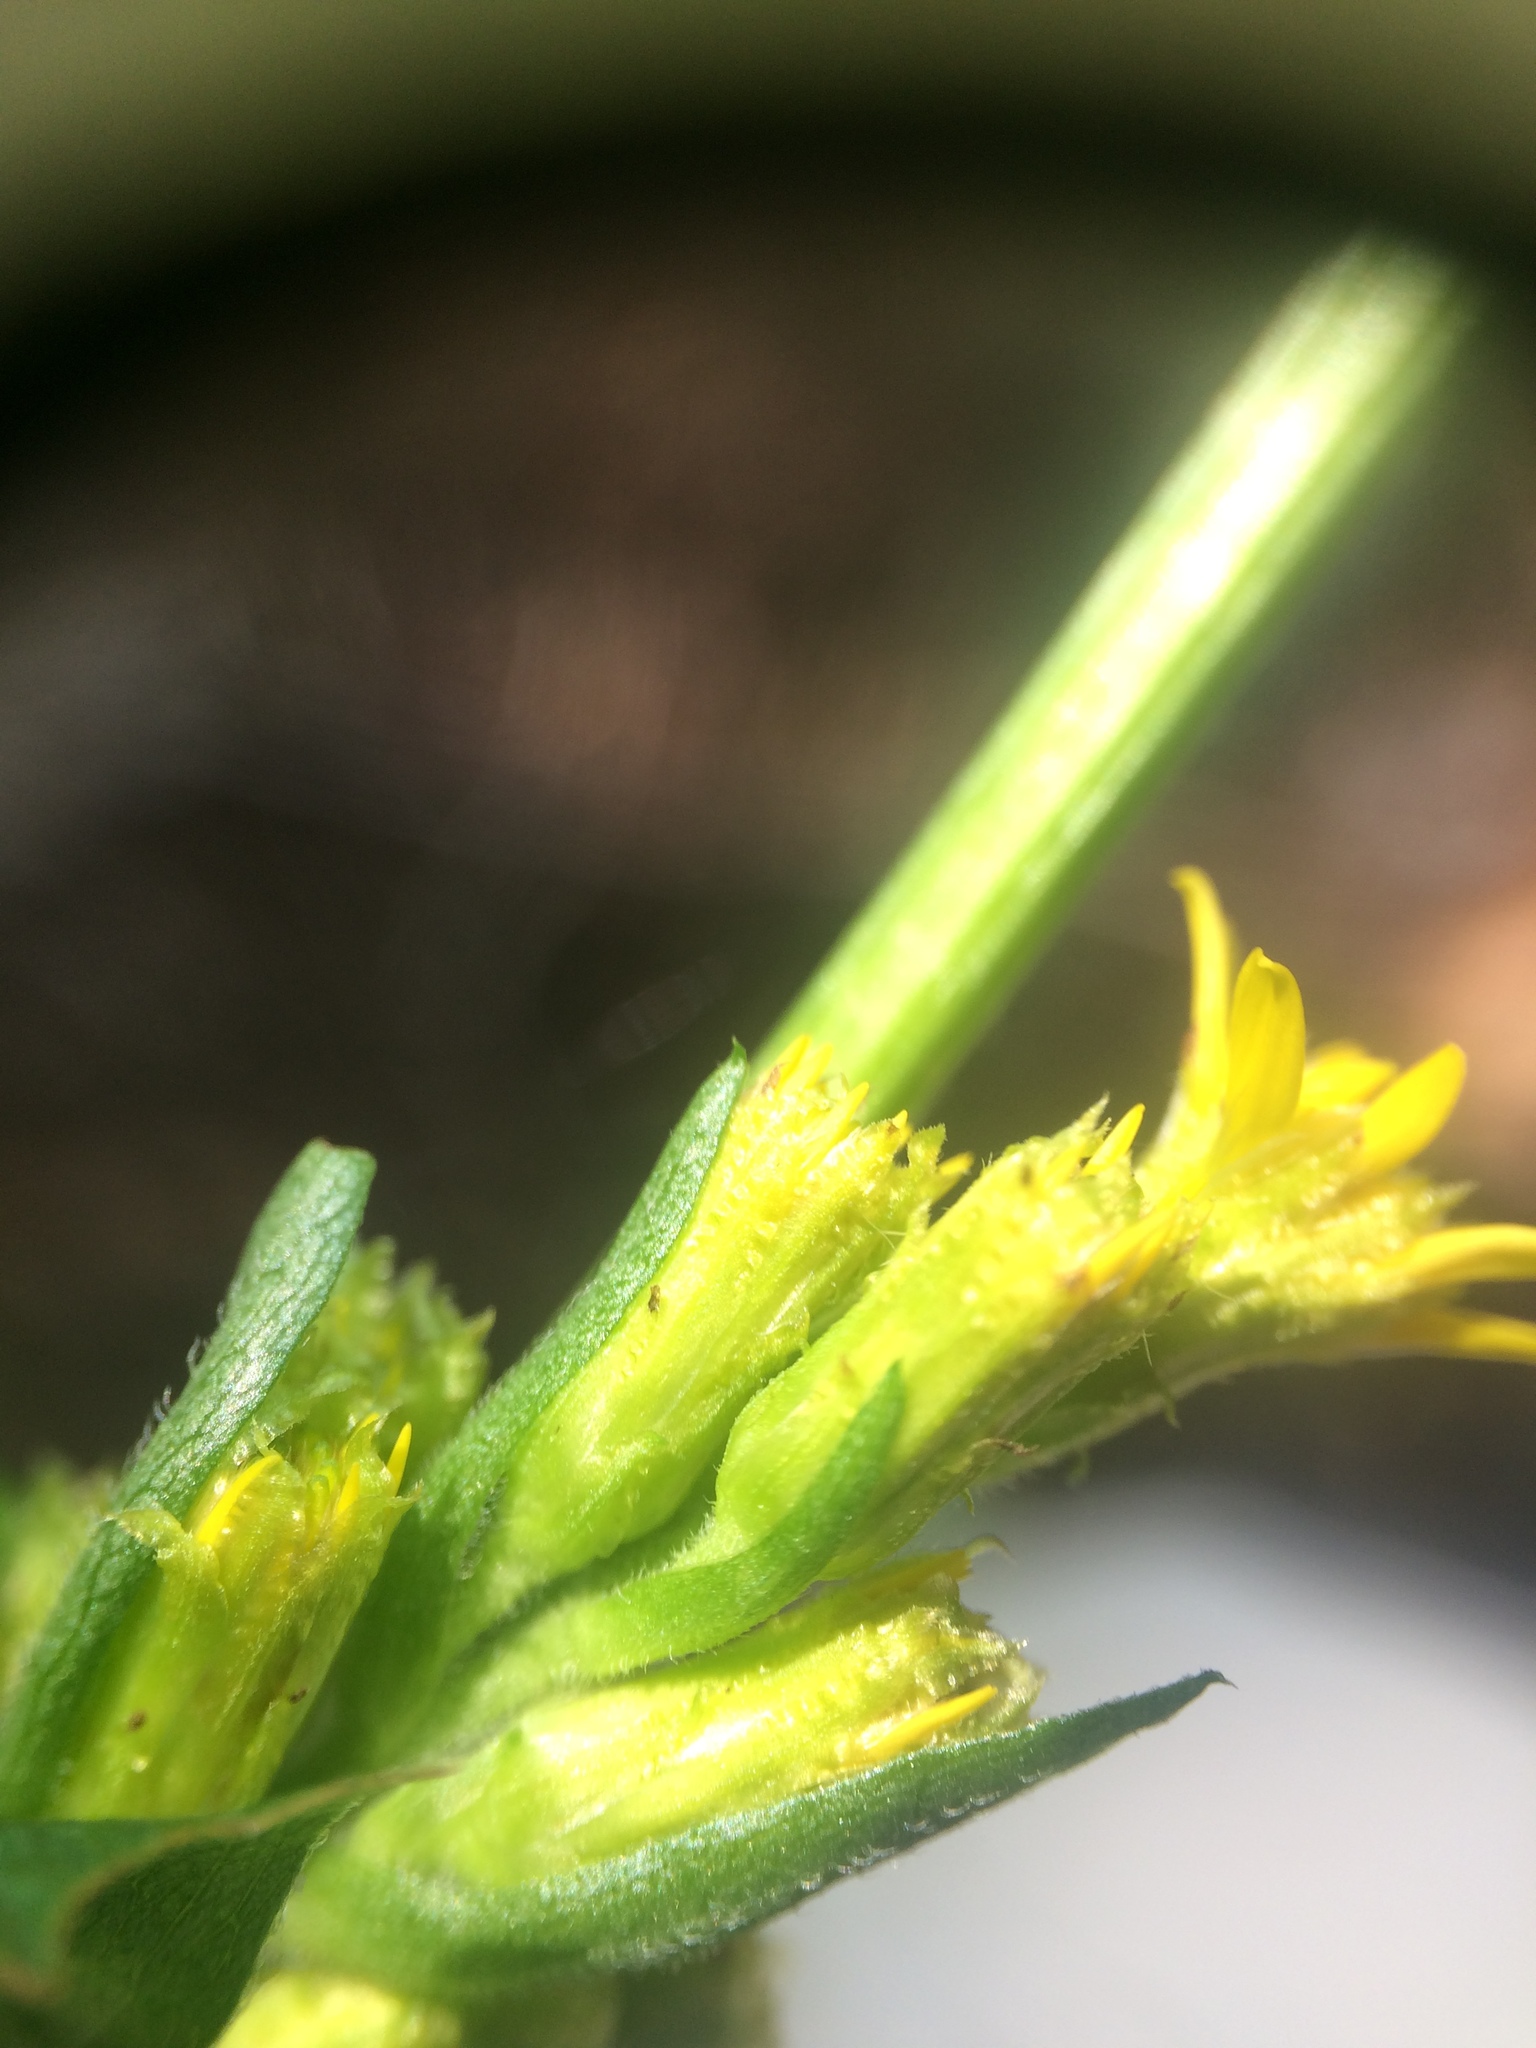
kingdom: Plantae
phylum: Tracheophyta
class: Magnoliopsida
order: Asterales
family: Asteraceae
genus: Solidago
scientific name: Solidago macrophylla
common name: Large-leaved goldenrod
